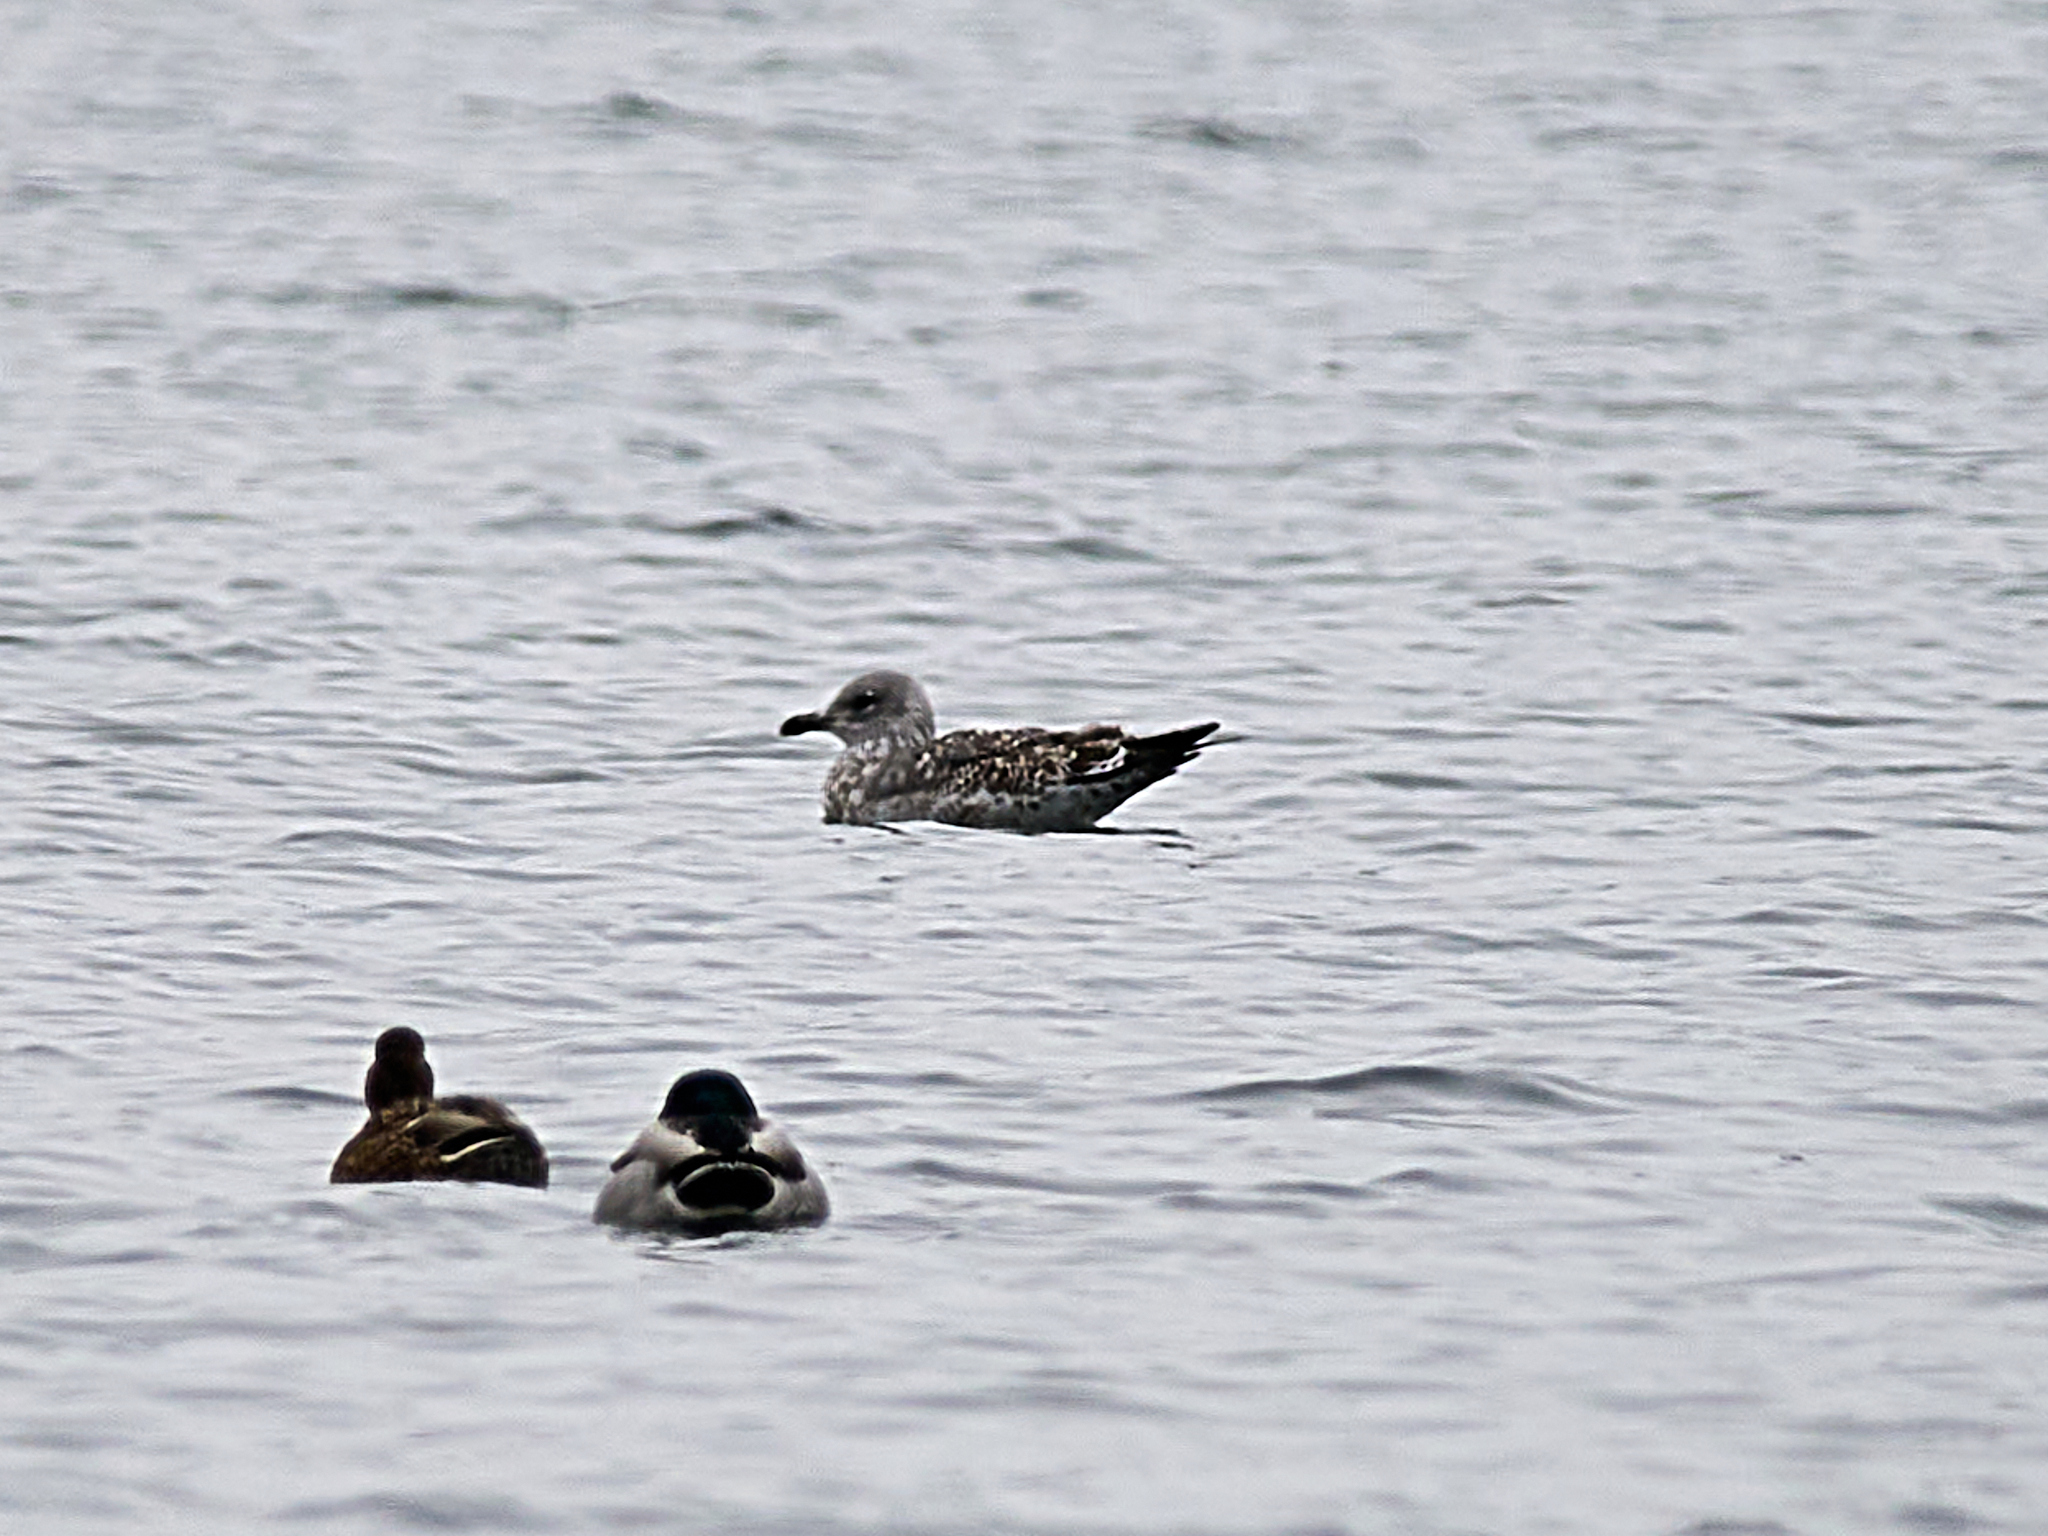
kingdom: Animalia
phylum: Chordata
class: Aves
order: Charadriiformes
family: Laridae
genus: Larus
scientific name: Larus fuscus
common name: Lesser black-backed gull
